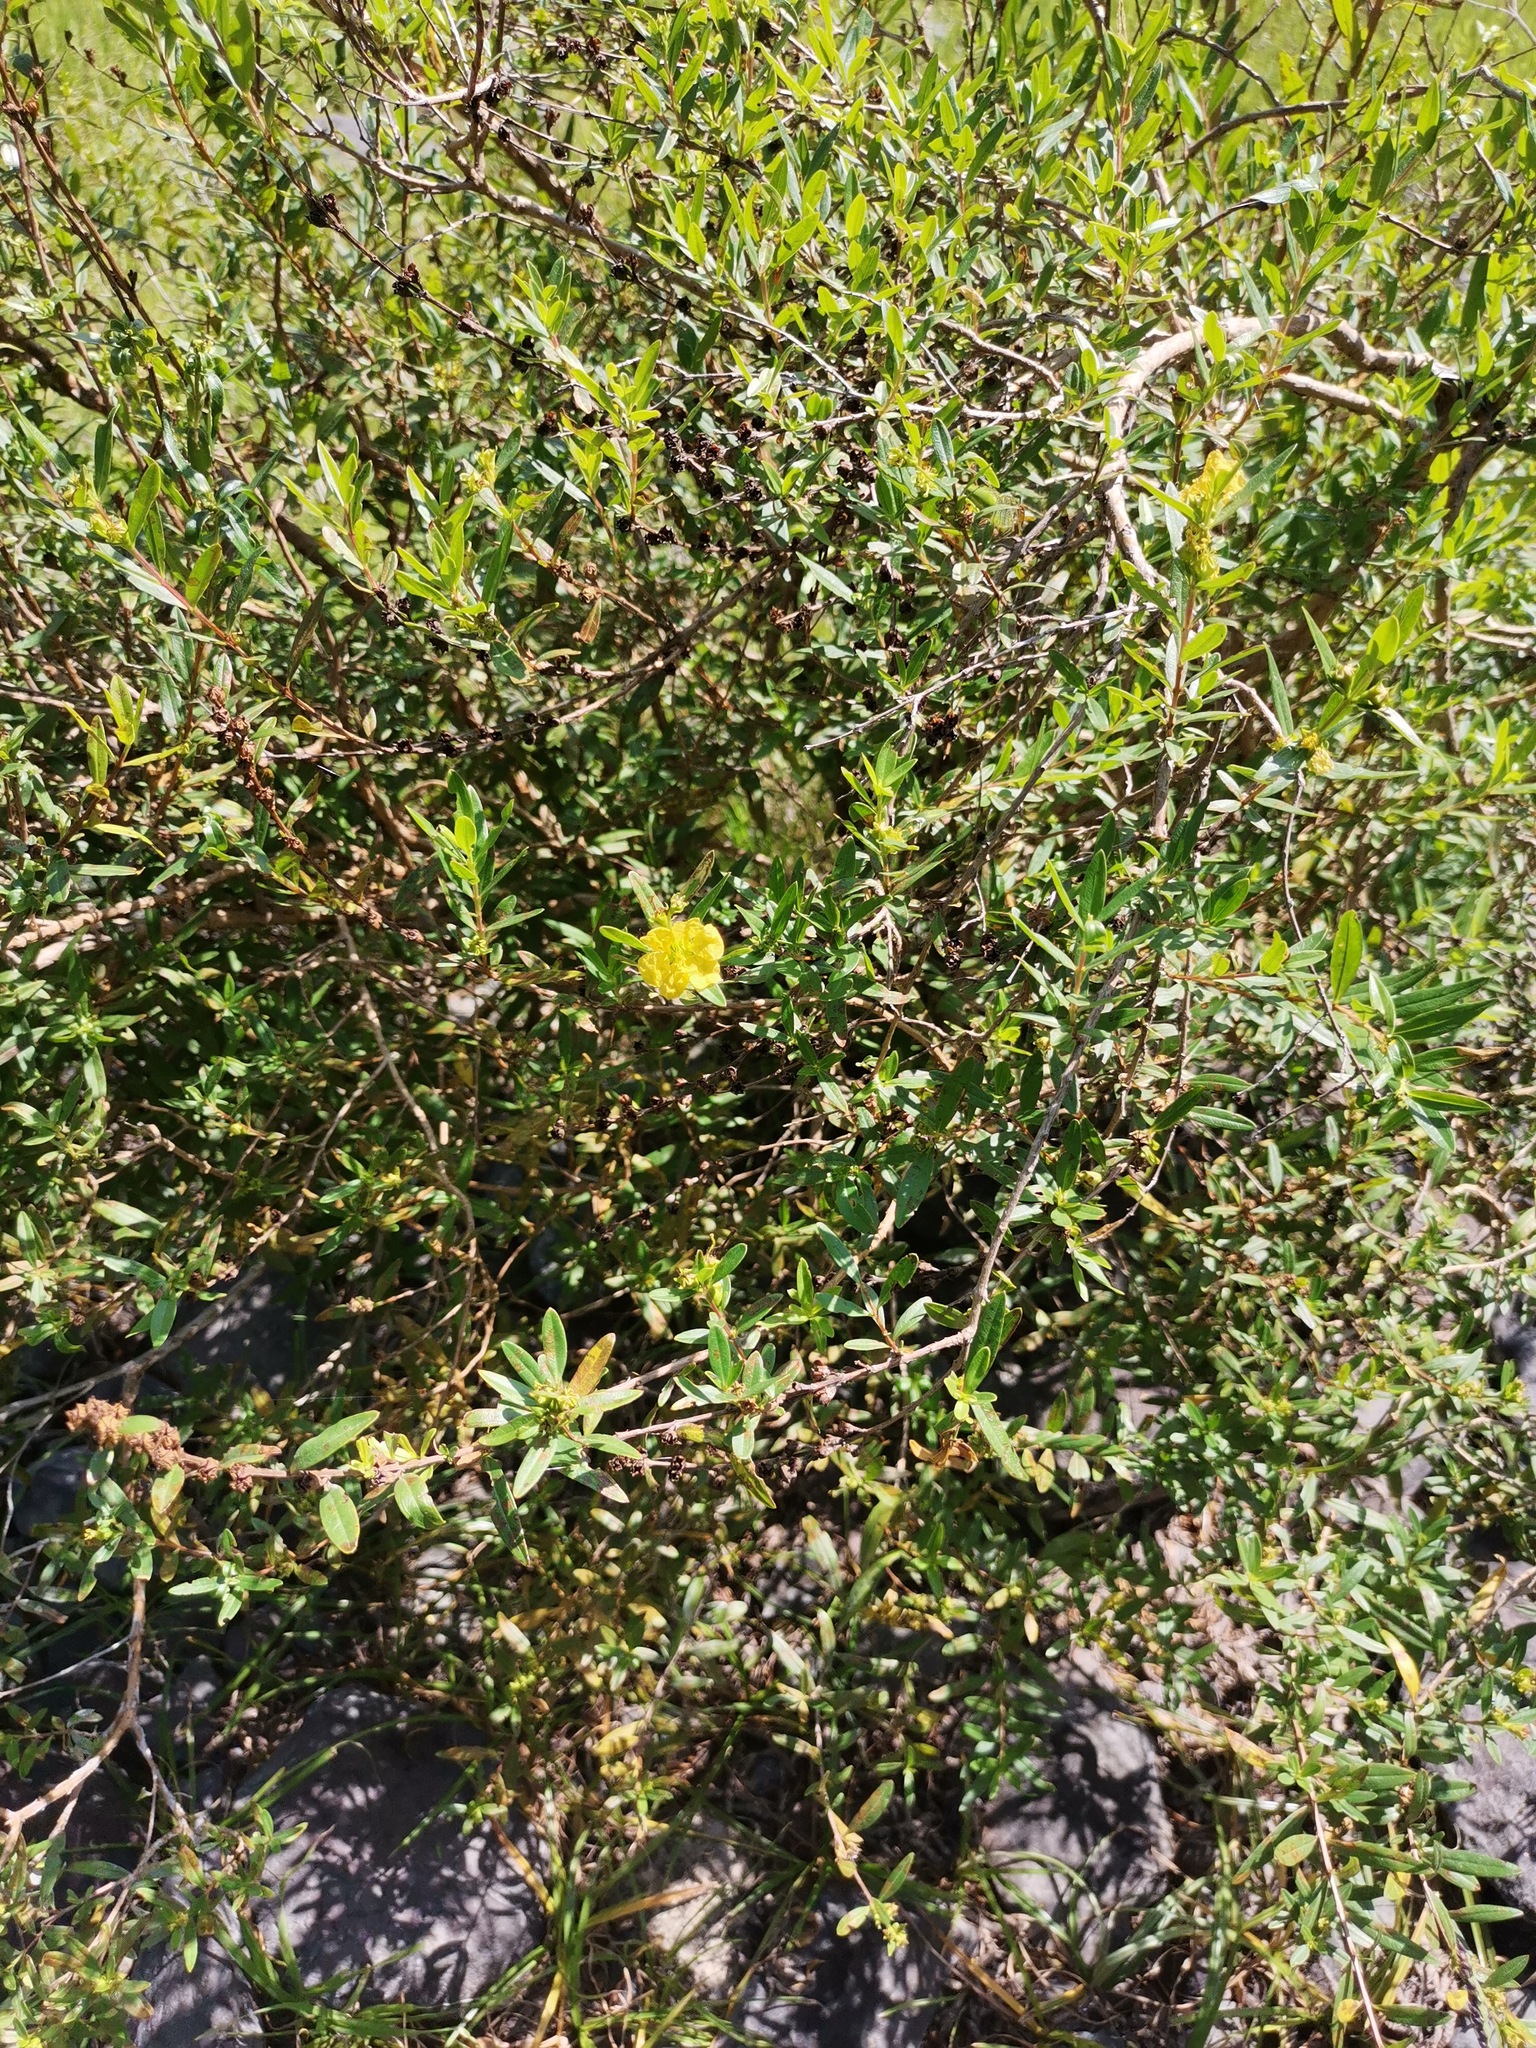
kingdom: Plantae
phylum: Tracheophyta
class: Magnoliopsida
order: Myrtales
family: Lythraceae
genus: Heimia
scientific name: Heimia salicifolia
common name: Willow-leaf heimia
